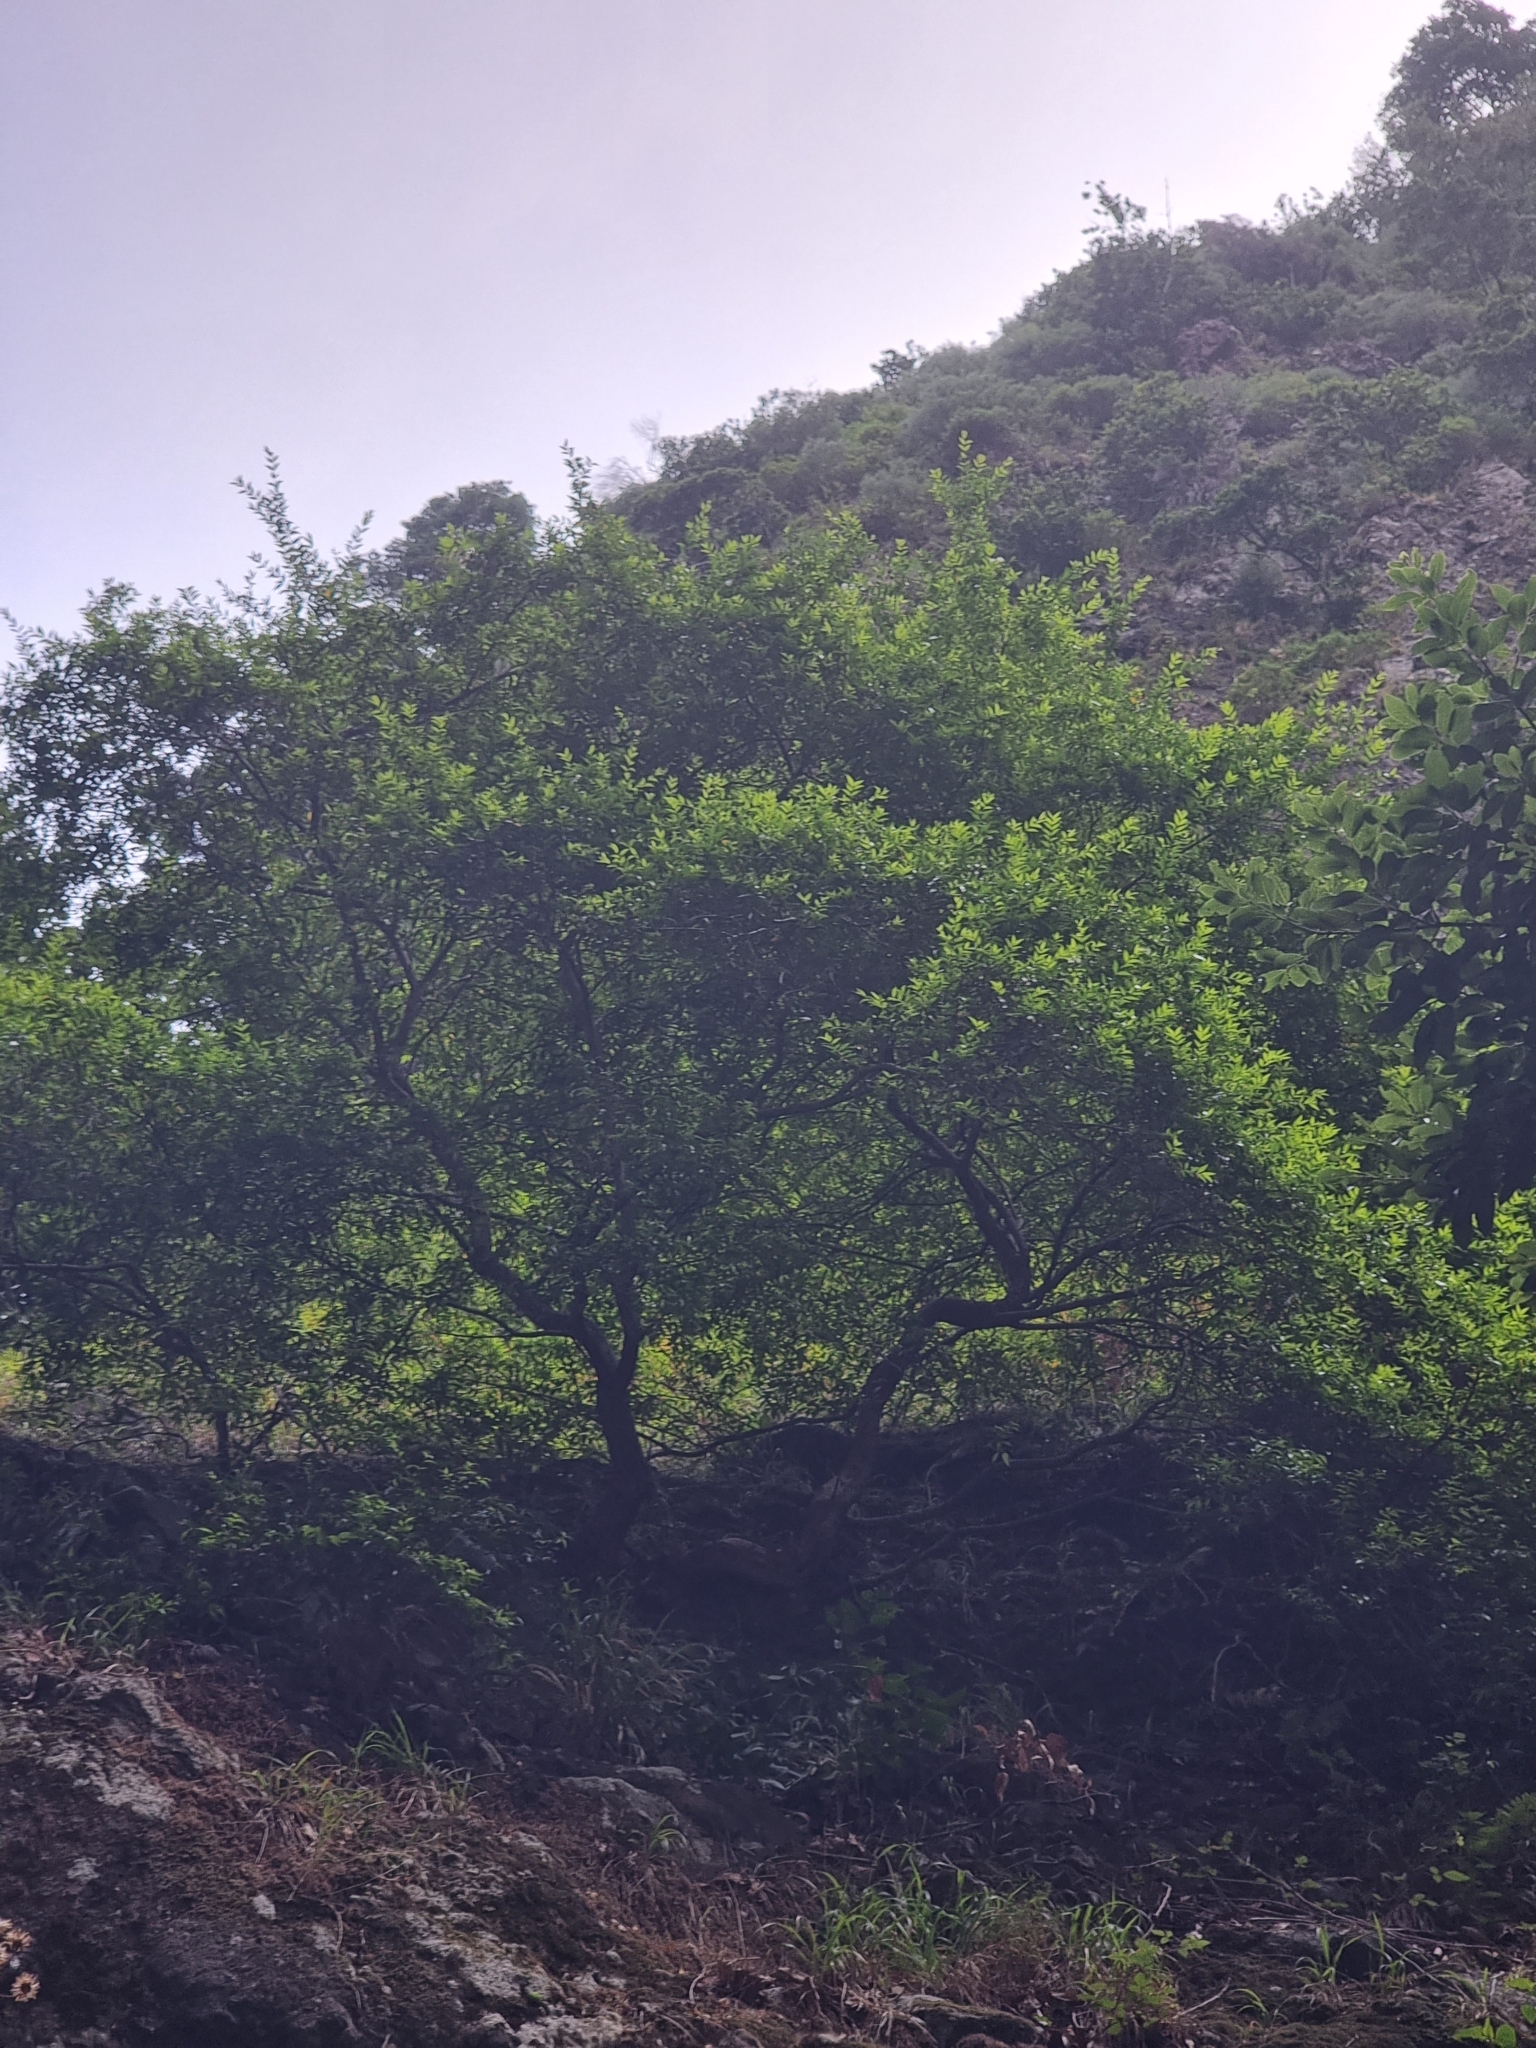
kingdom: Plantae
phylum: Tracheophyta
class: Magnoliopsida
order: Myrtales
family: Myrtaceae
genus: Myrtus
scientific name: Myrtus communis
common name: Myrtle
